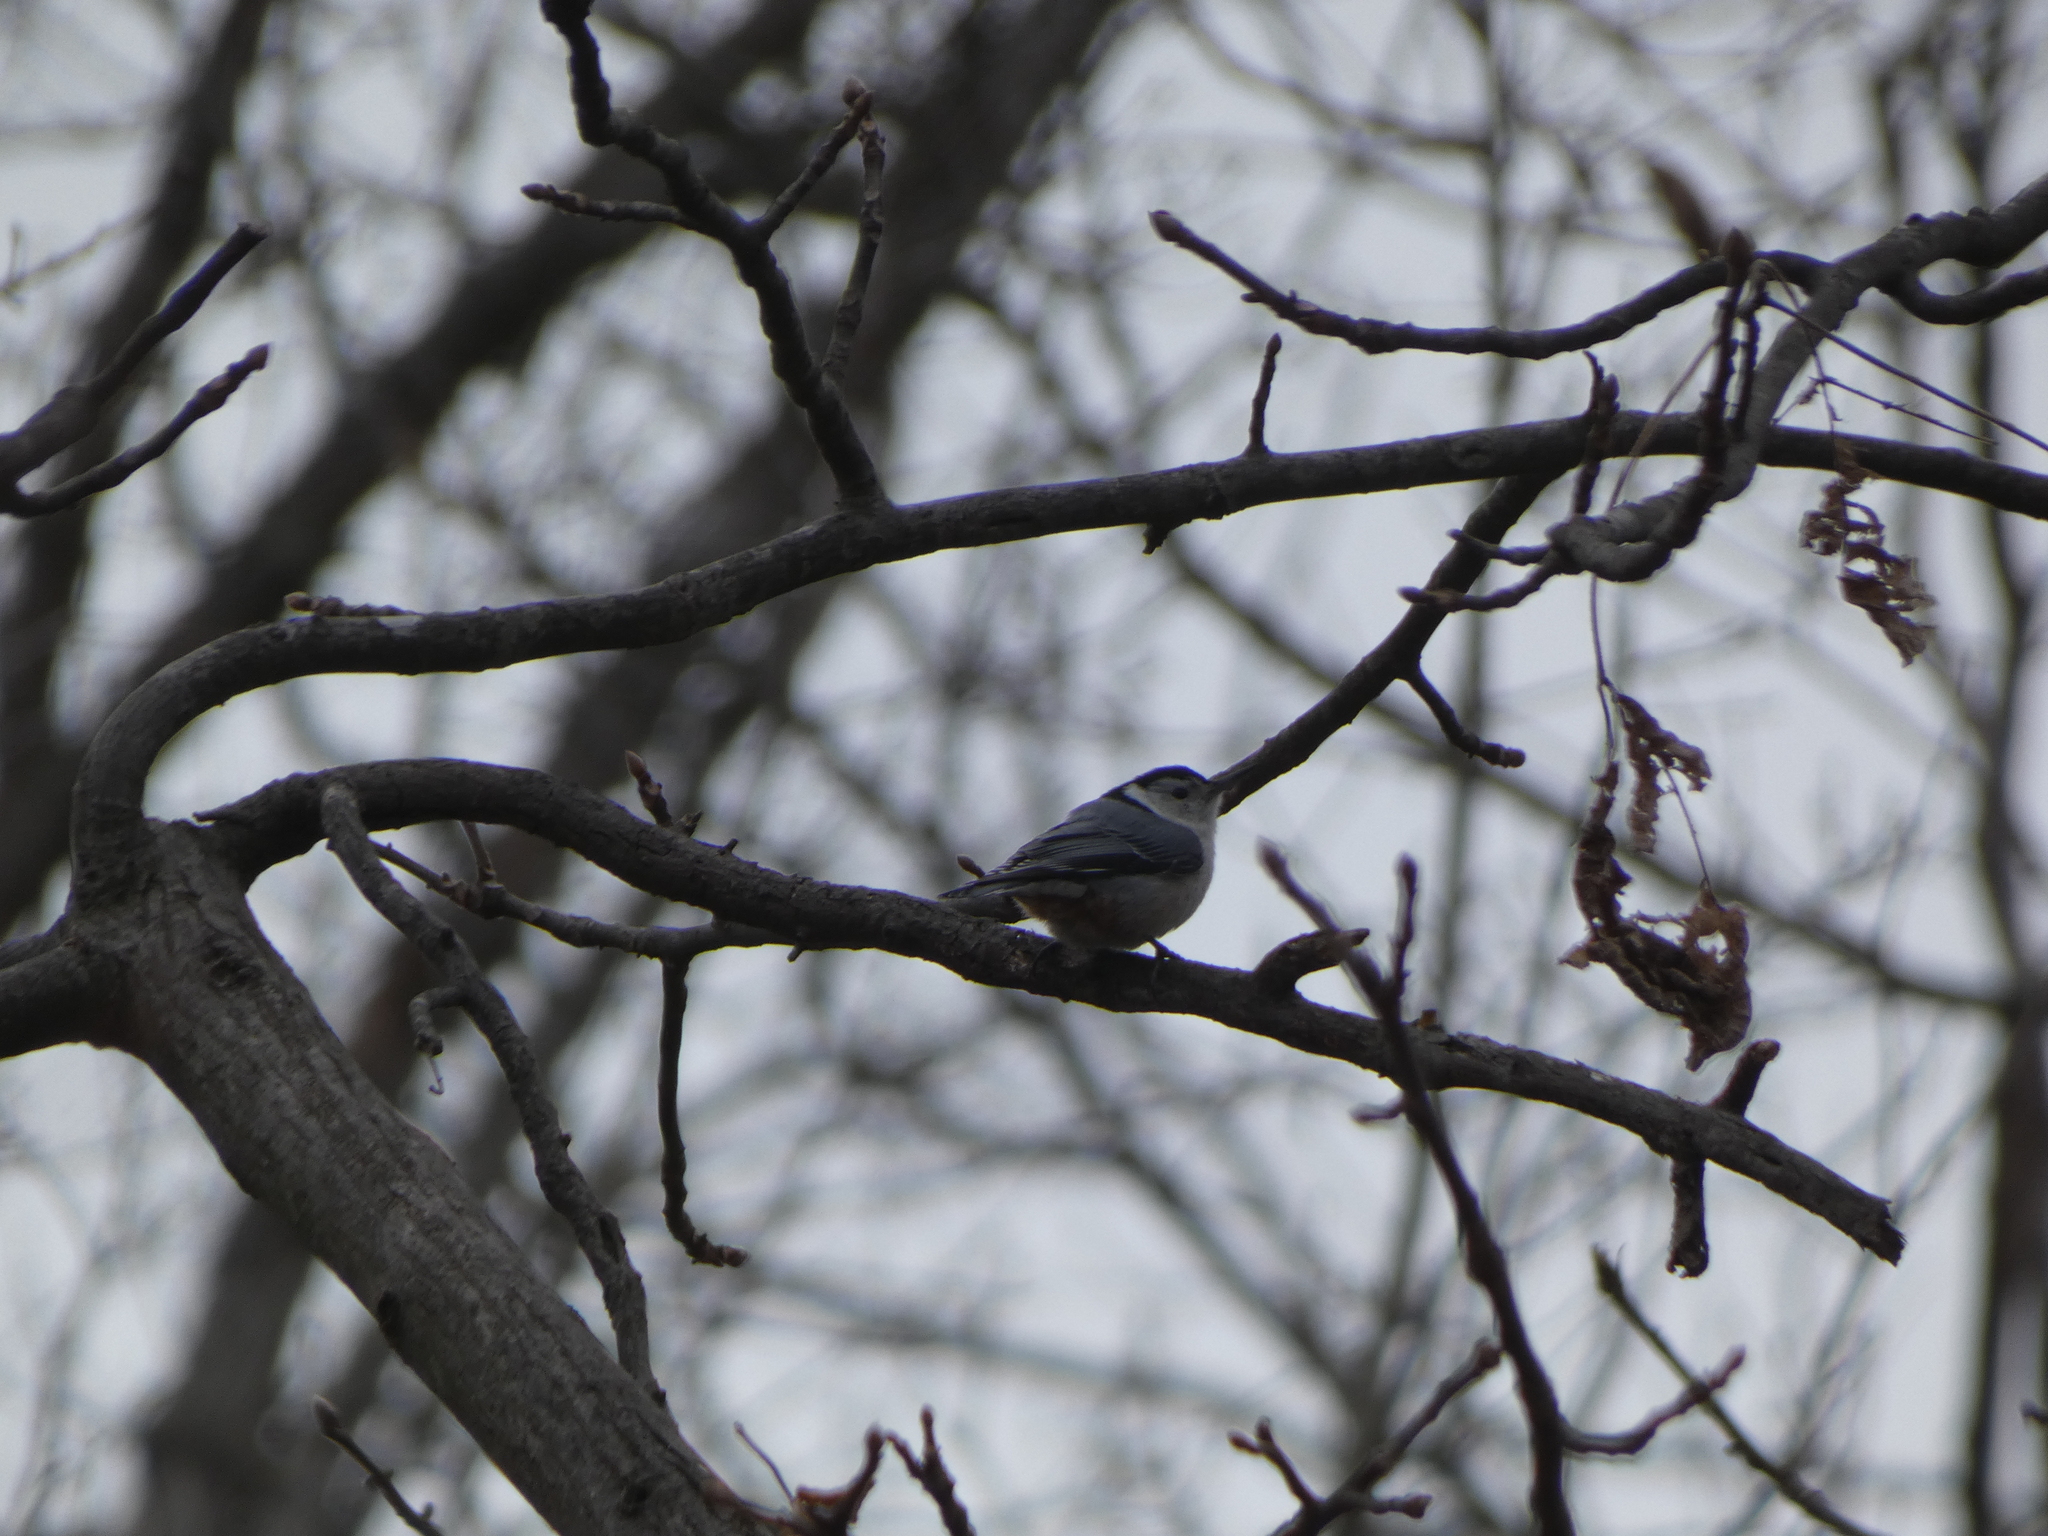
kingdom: Animalia
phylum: Chordata
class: Aves
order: Passeriformes
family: Sittidae
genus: Sitta
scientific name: Sitta carolinensis
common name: White-breasted nuthatch
